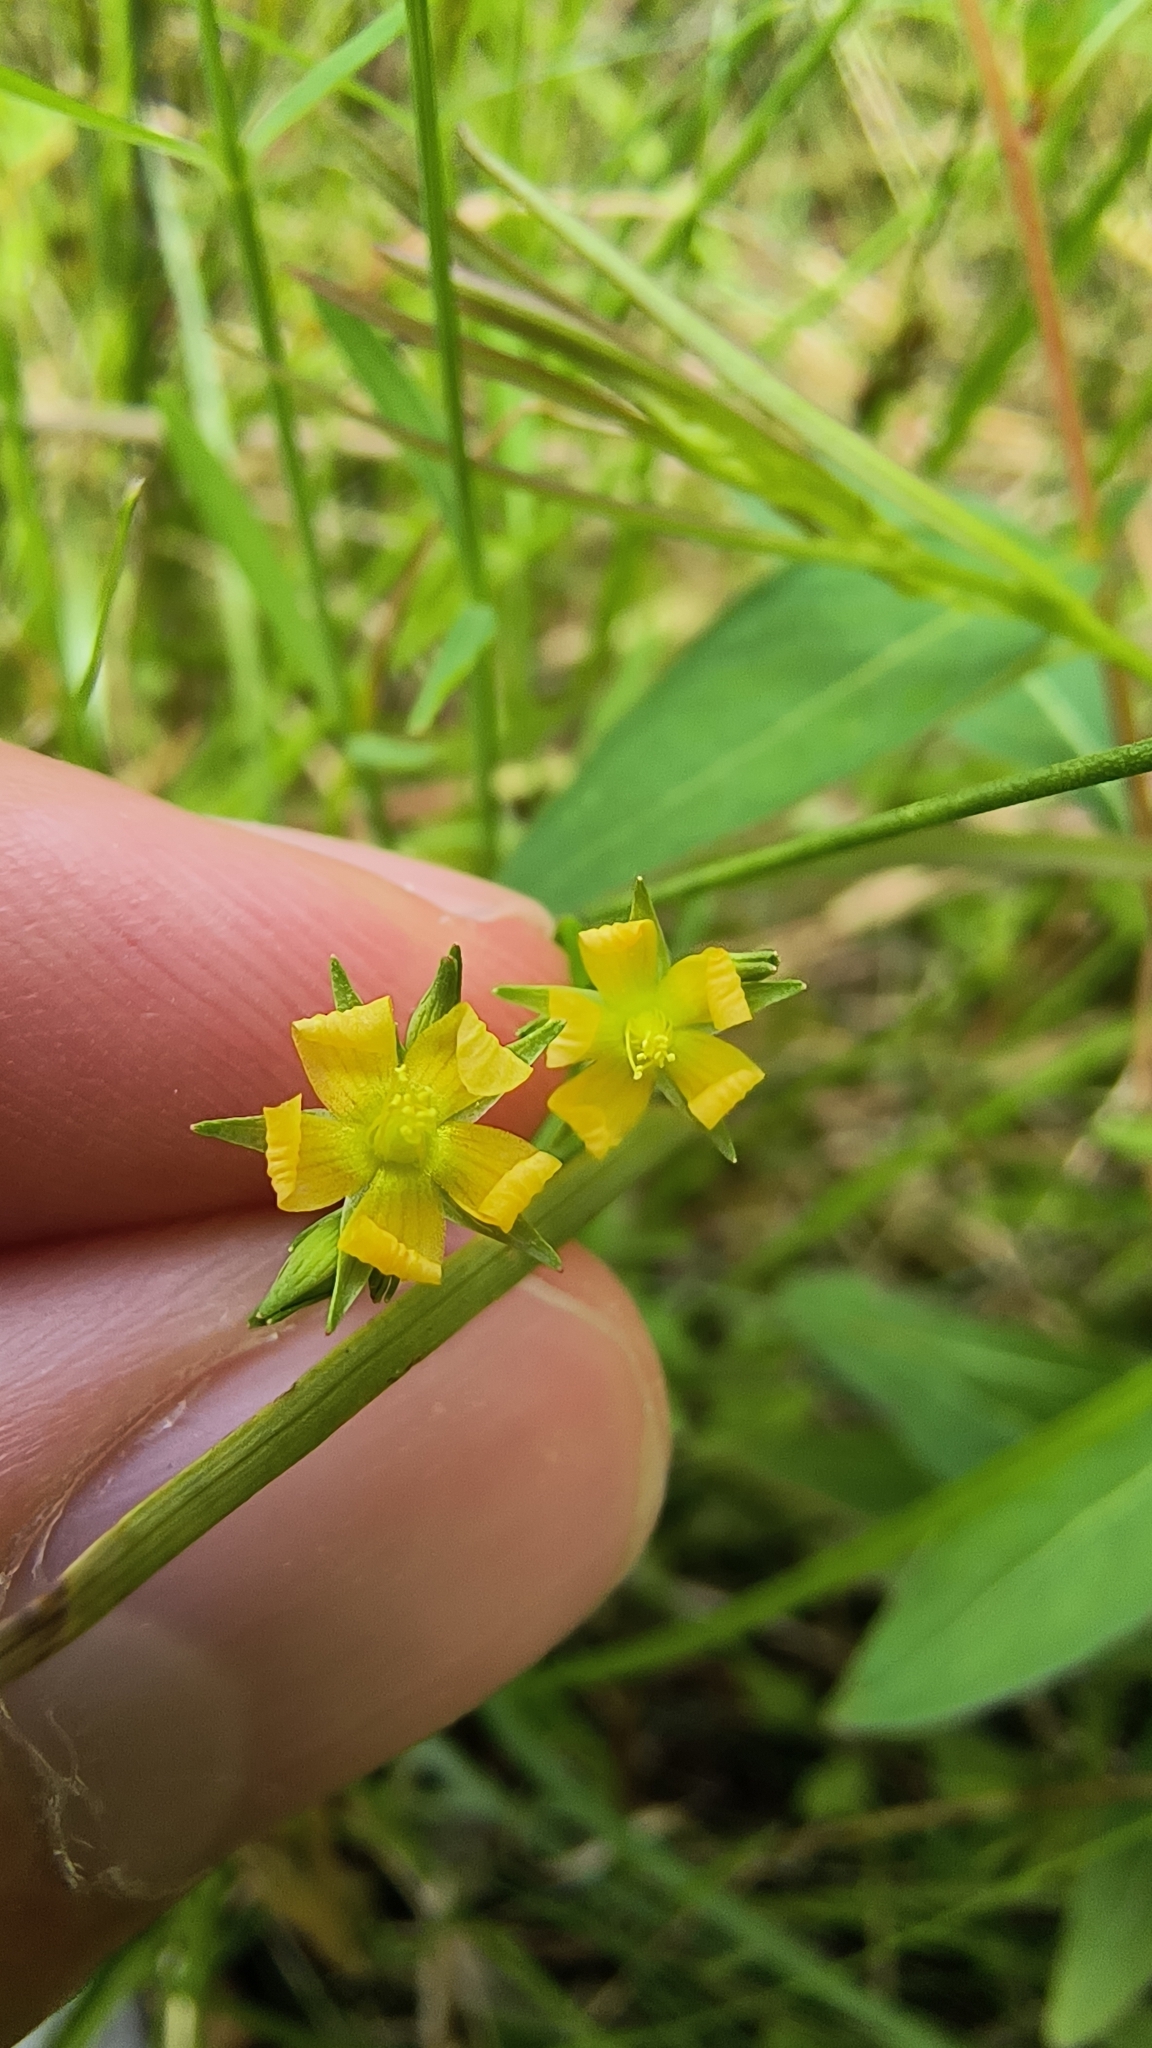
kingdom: Plantae
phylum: Tracheophyta
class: Magnoliopsida
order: Malpighiales
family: Hypericaceae
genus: Hypericum
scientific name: Hypericum canadense
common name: Irish st. john's-wort
